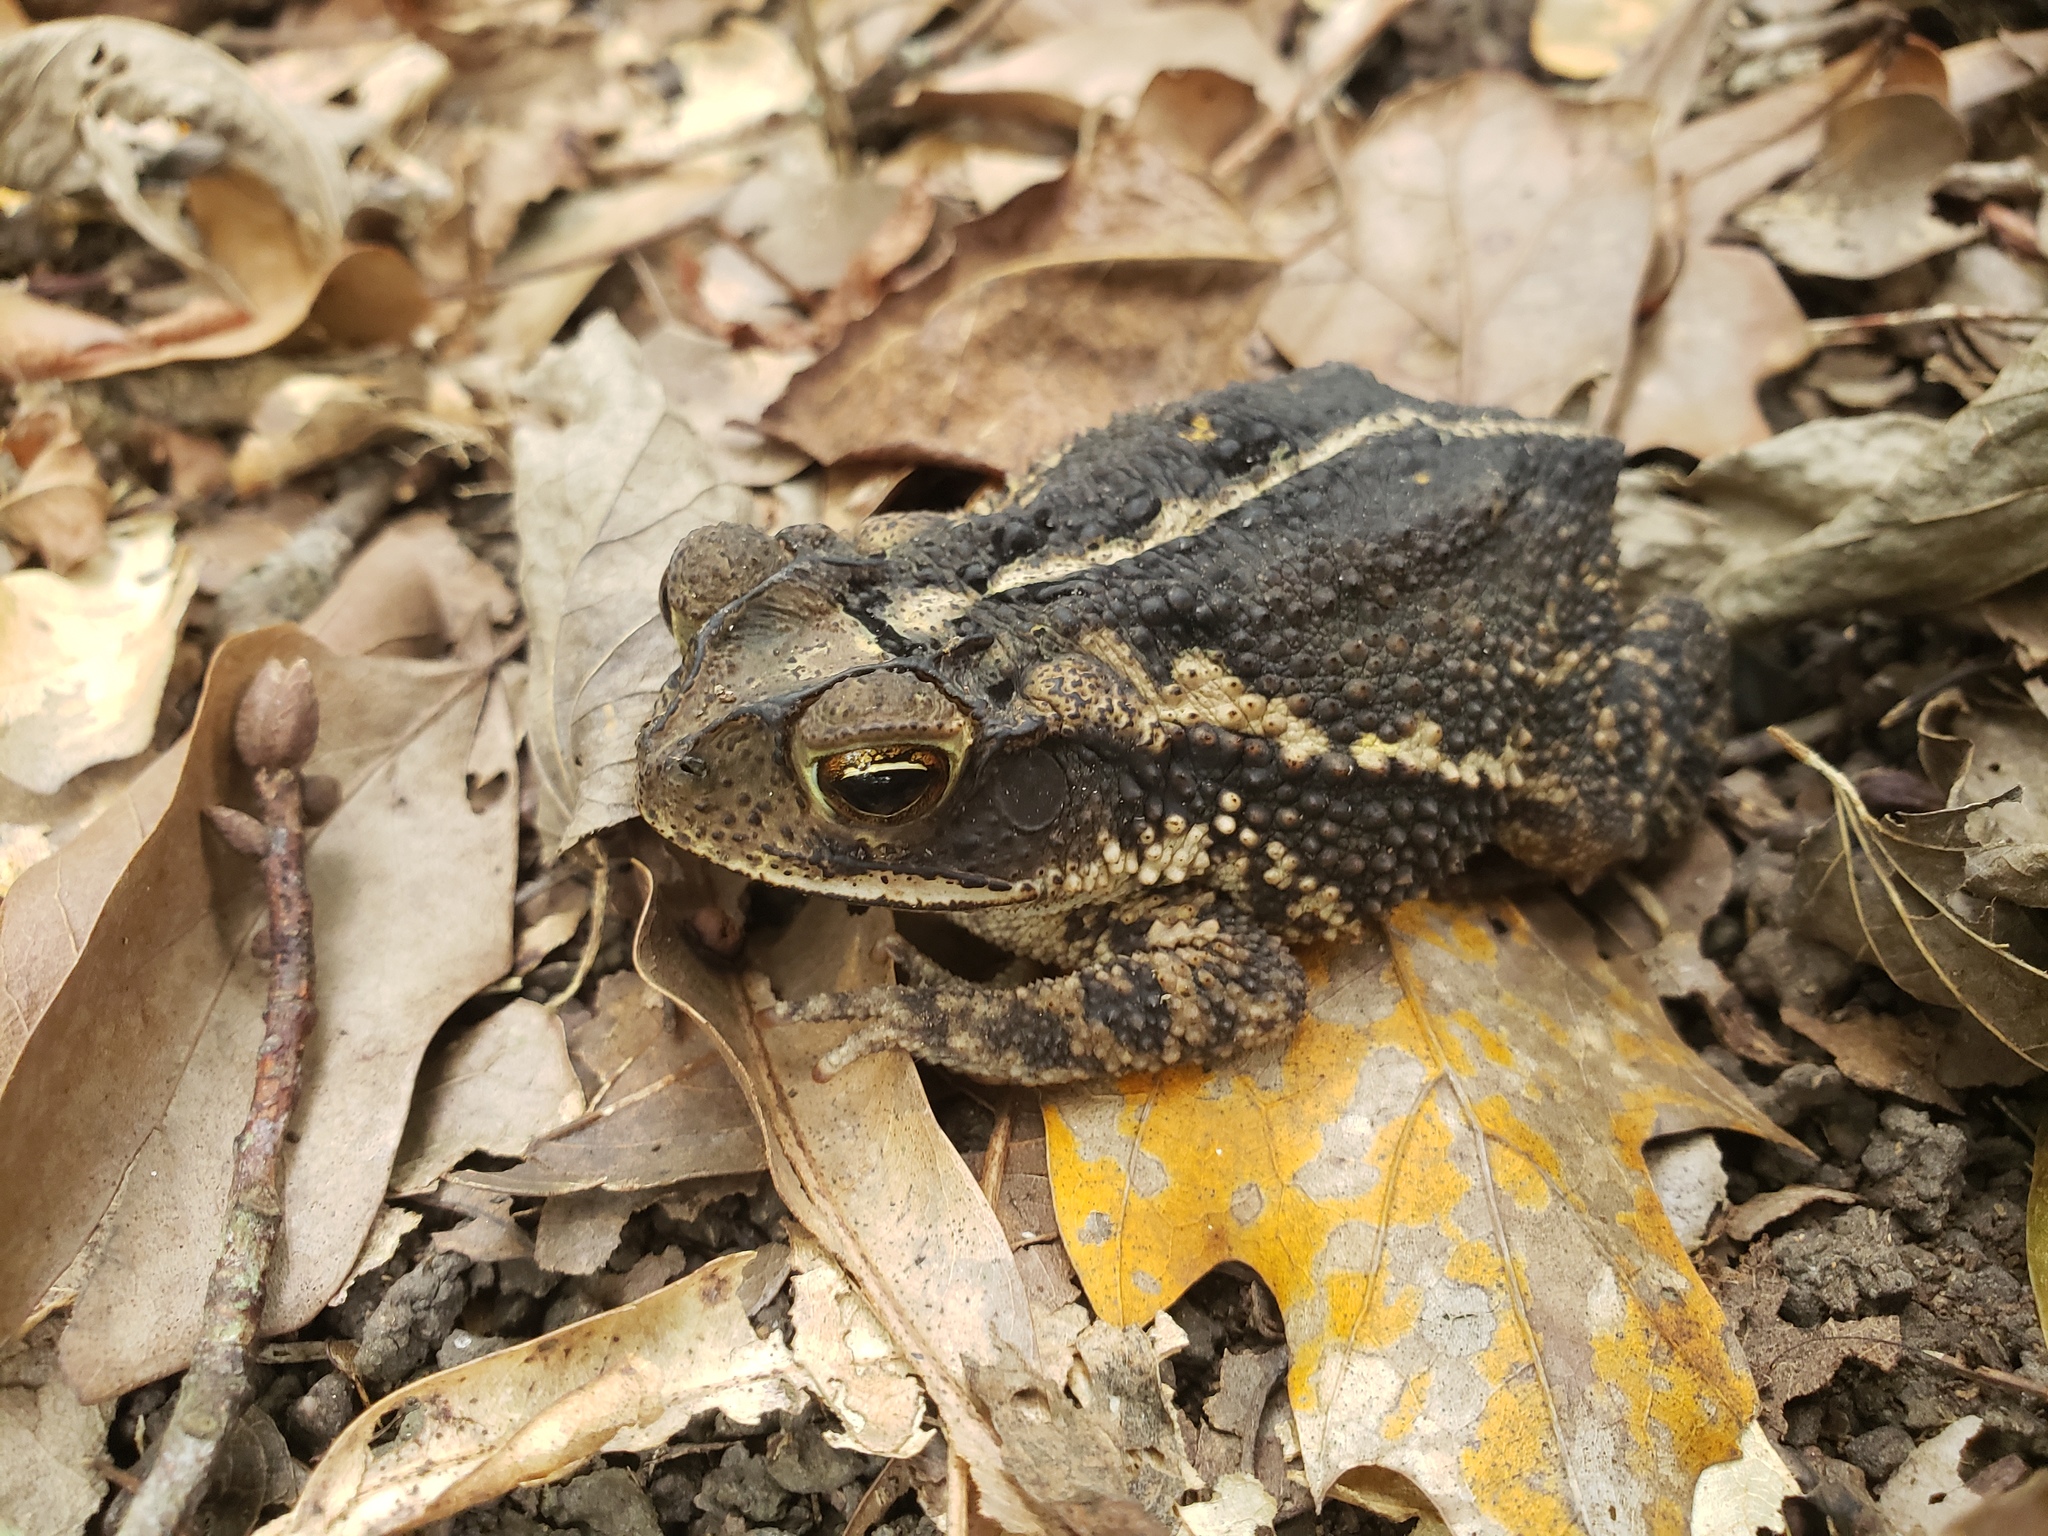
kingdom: Animalia
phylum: Chordata
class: Amphibia
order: Anura
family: Bufonidae
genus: Incilius
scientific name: Incilius nebulifer
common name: Gulf coast toad
